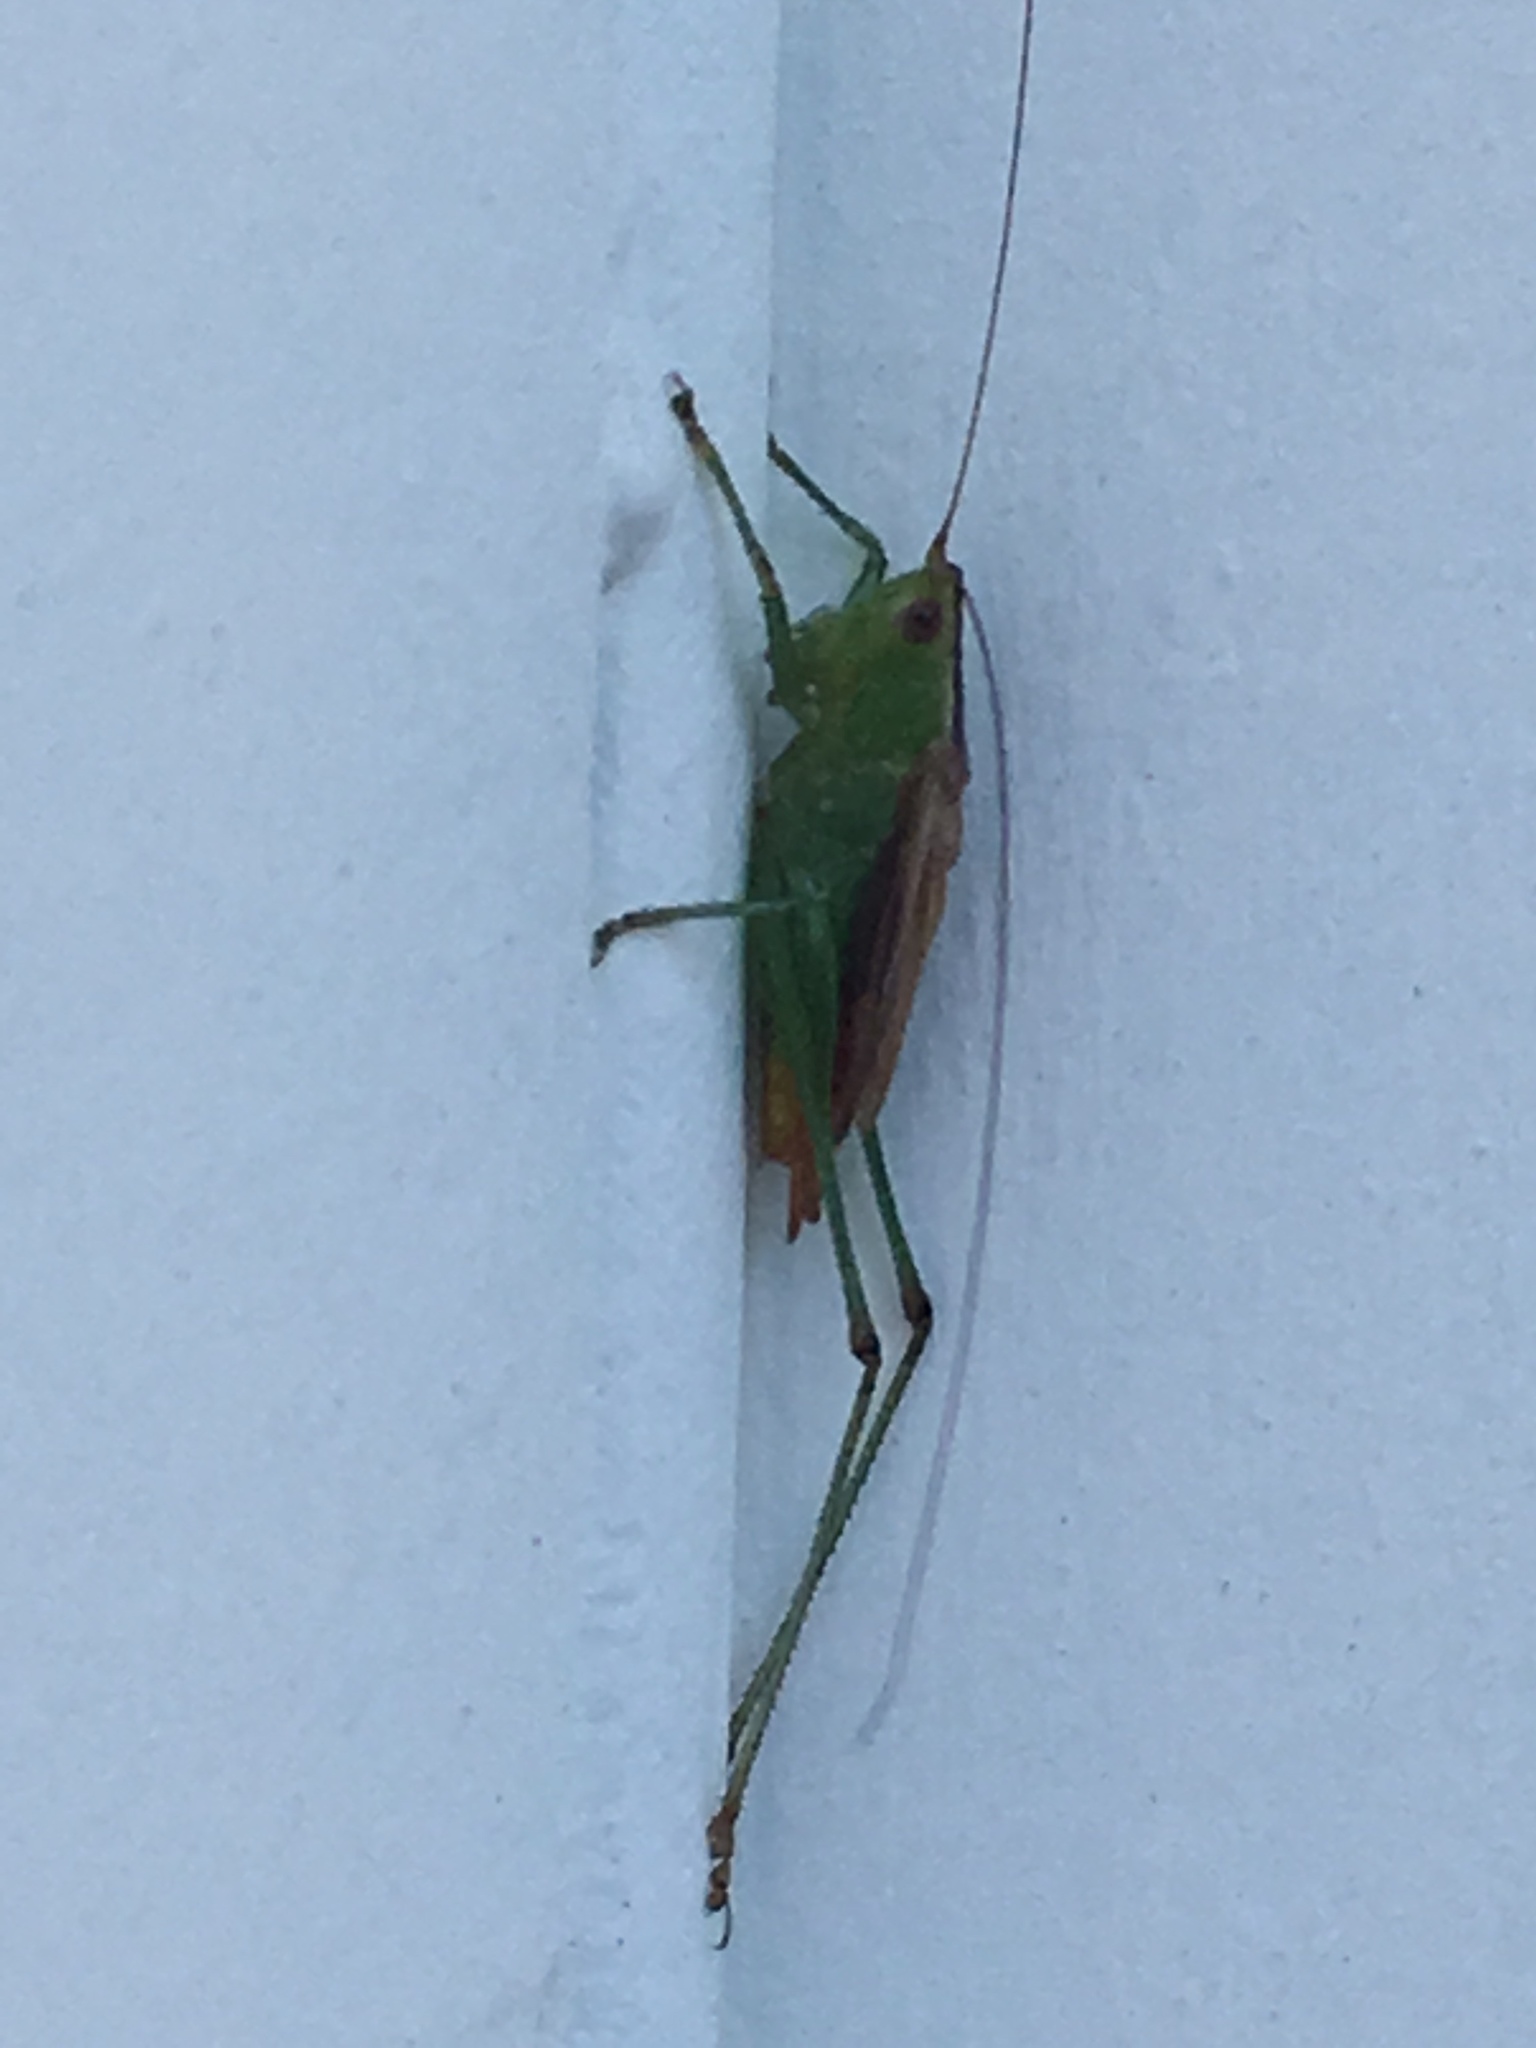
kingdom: Animalia
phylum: Arthropoda
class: Insecta
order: Orthoptera
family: Tettigoniidae
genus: Conocephalus
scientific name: Conocephalus brevipennis
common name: Short-winged meadow katydid
